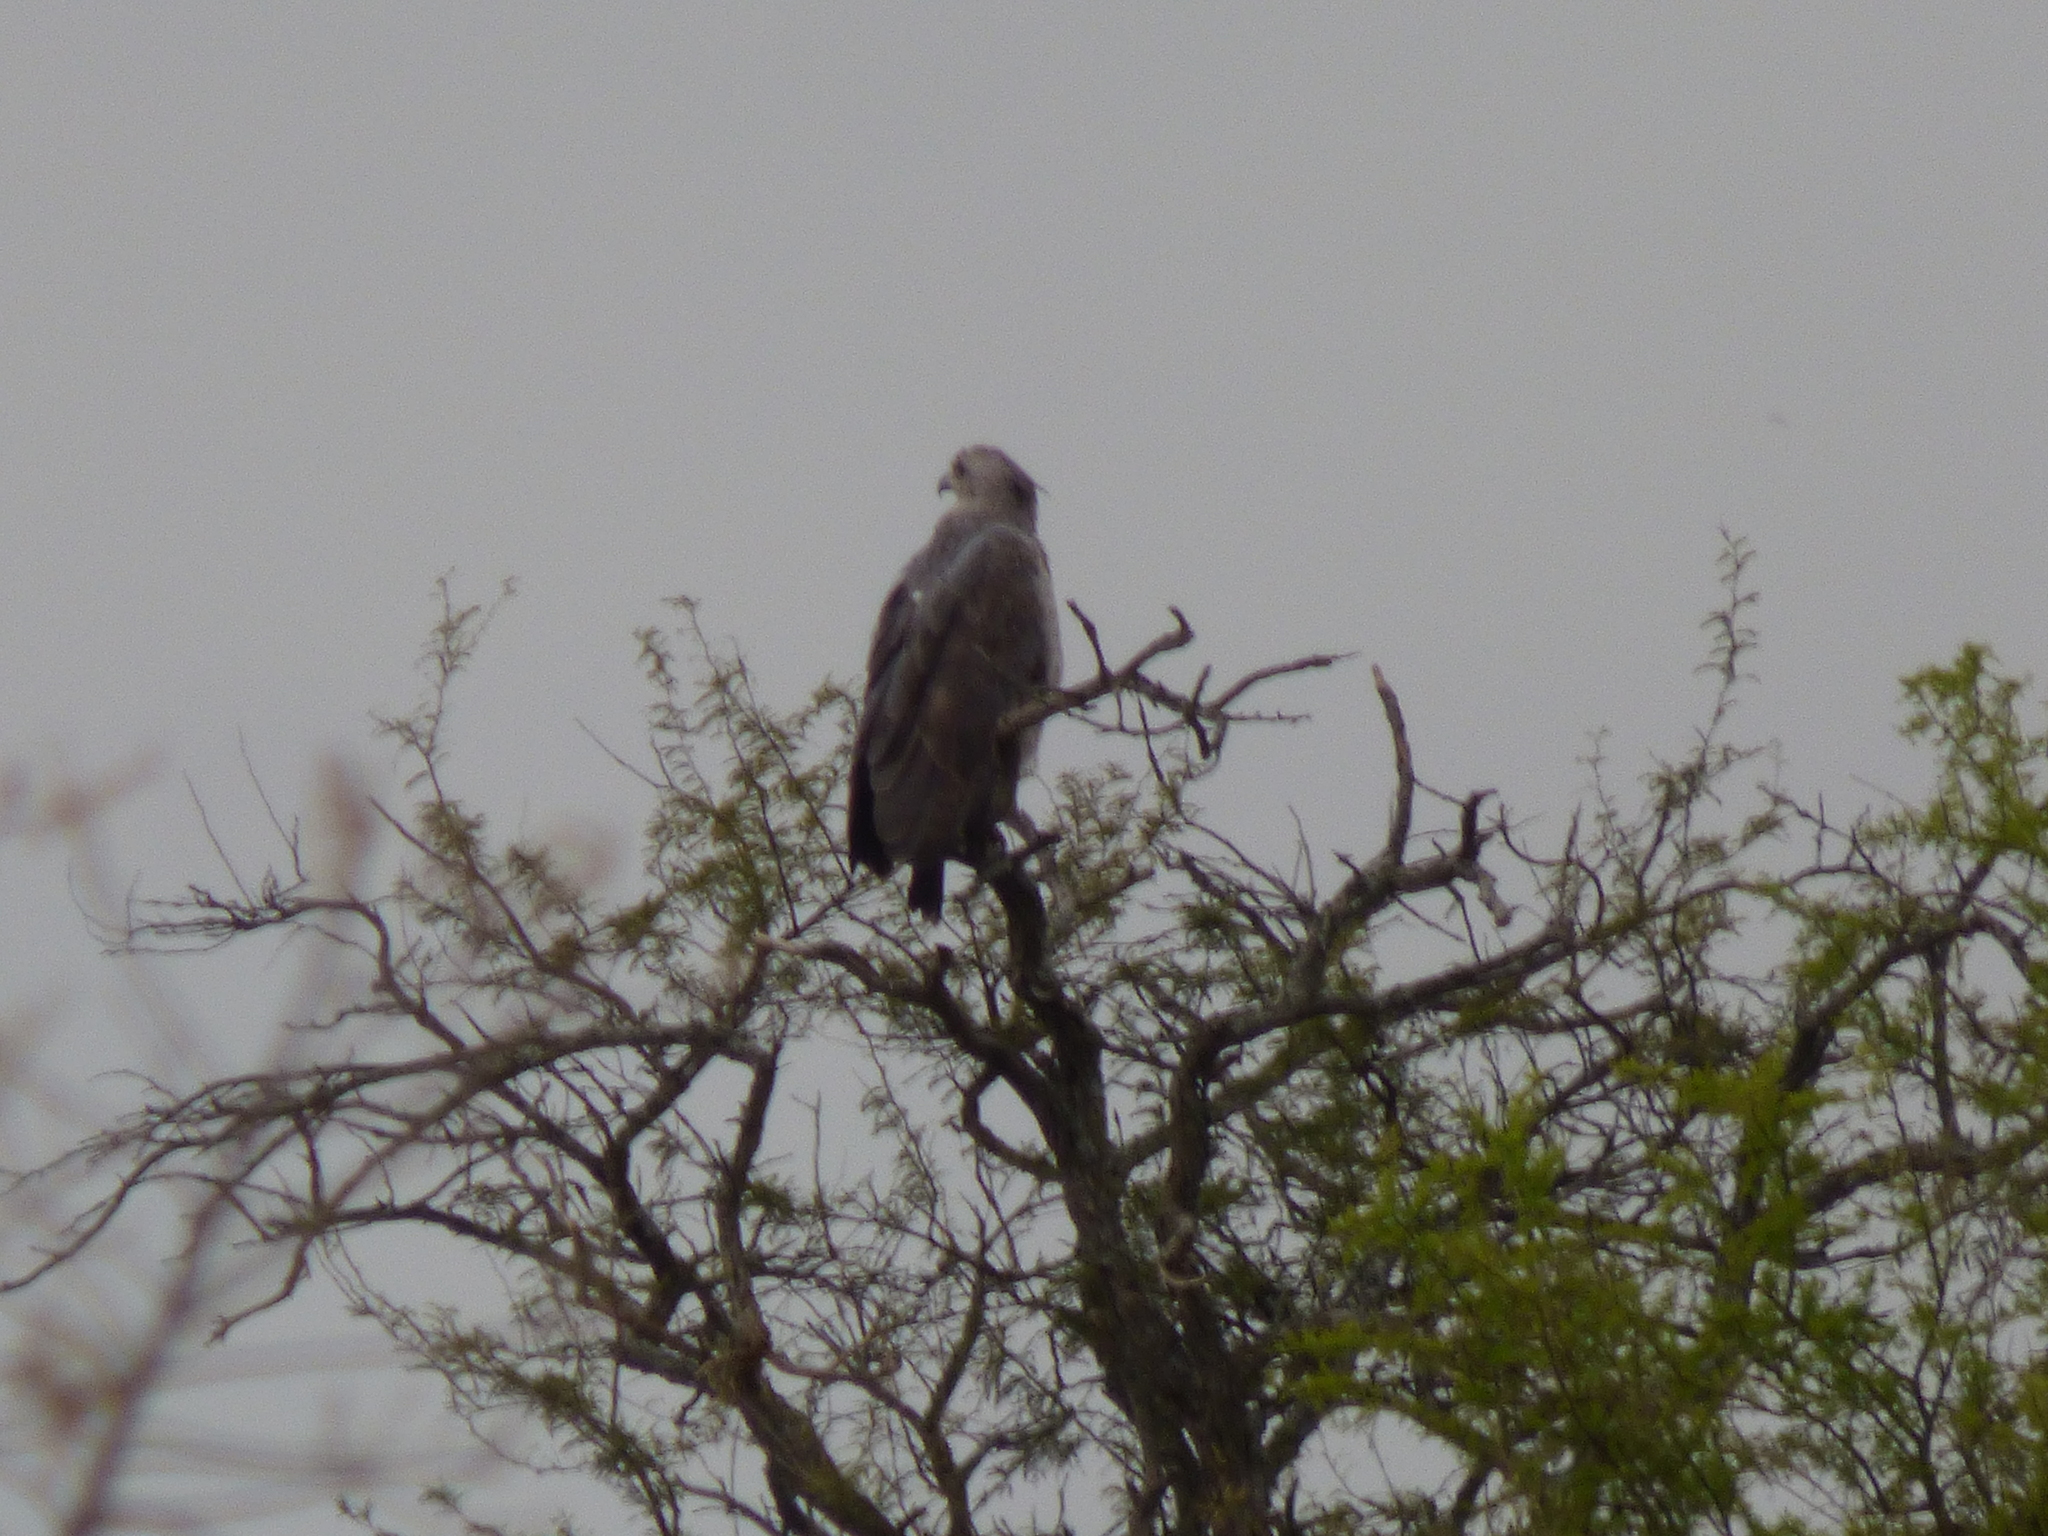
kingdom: Animalia
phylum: Chordata
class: Aves
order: Accipitriformes
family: Accipitridae
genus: Harpyhaliaetus
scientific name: Harpyhaliaetus coronatus
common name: Crowned solitary eagle
